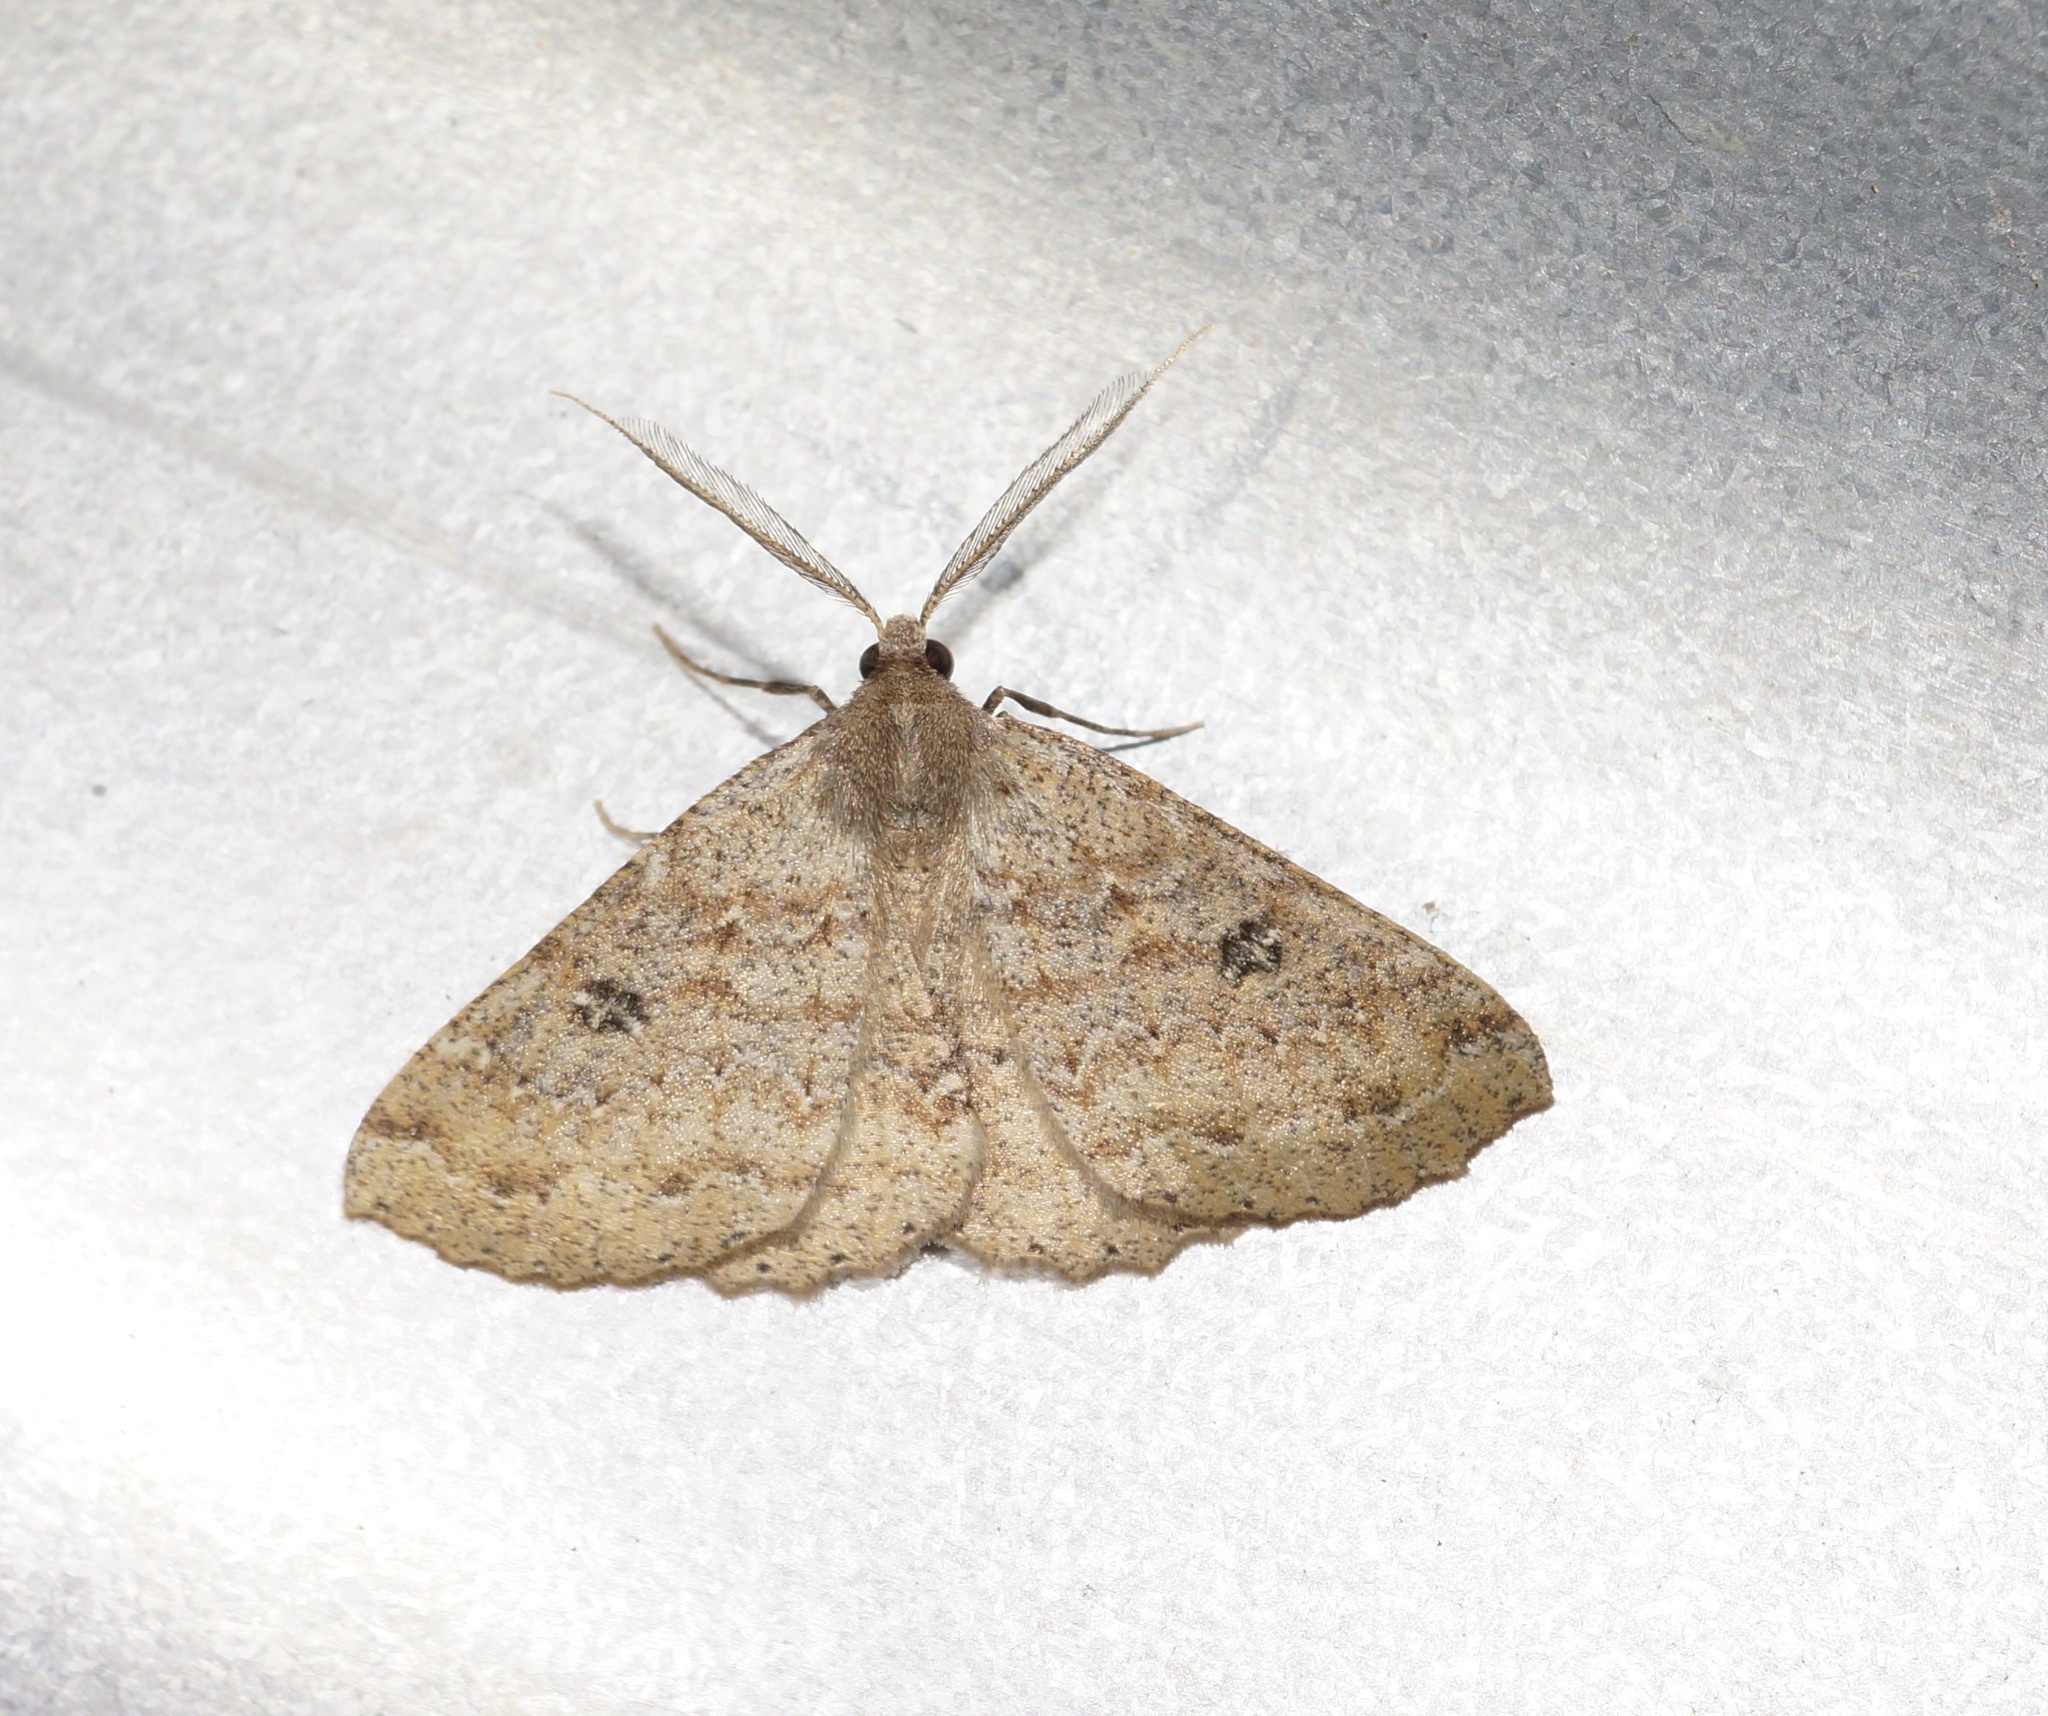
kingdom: Animalia
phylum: Arthropoda
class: Insecta
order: Lepidoptera
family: Geometridae
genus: Cleora
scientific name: Cleora scriptaria
